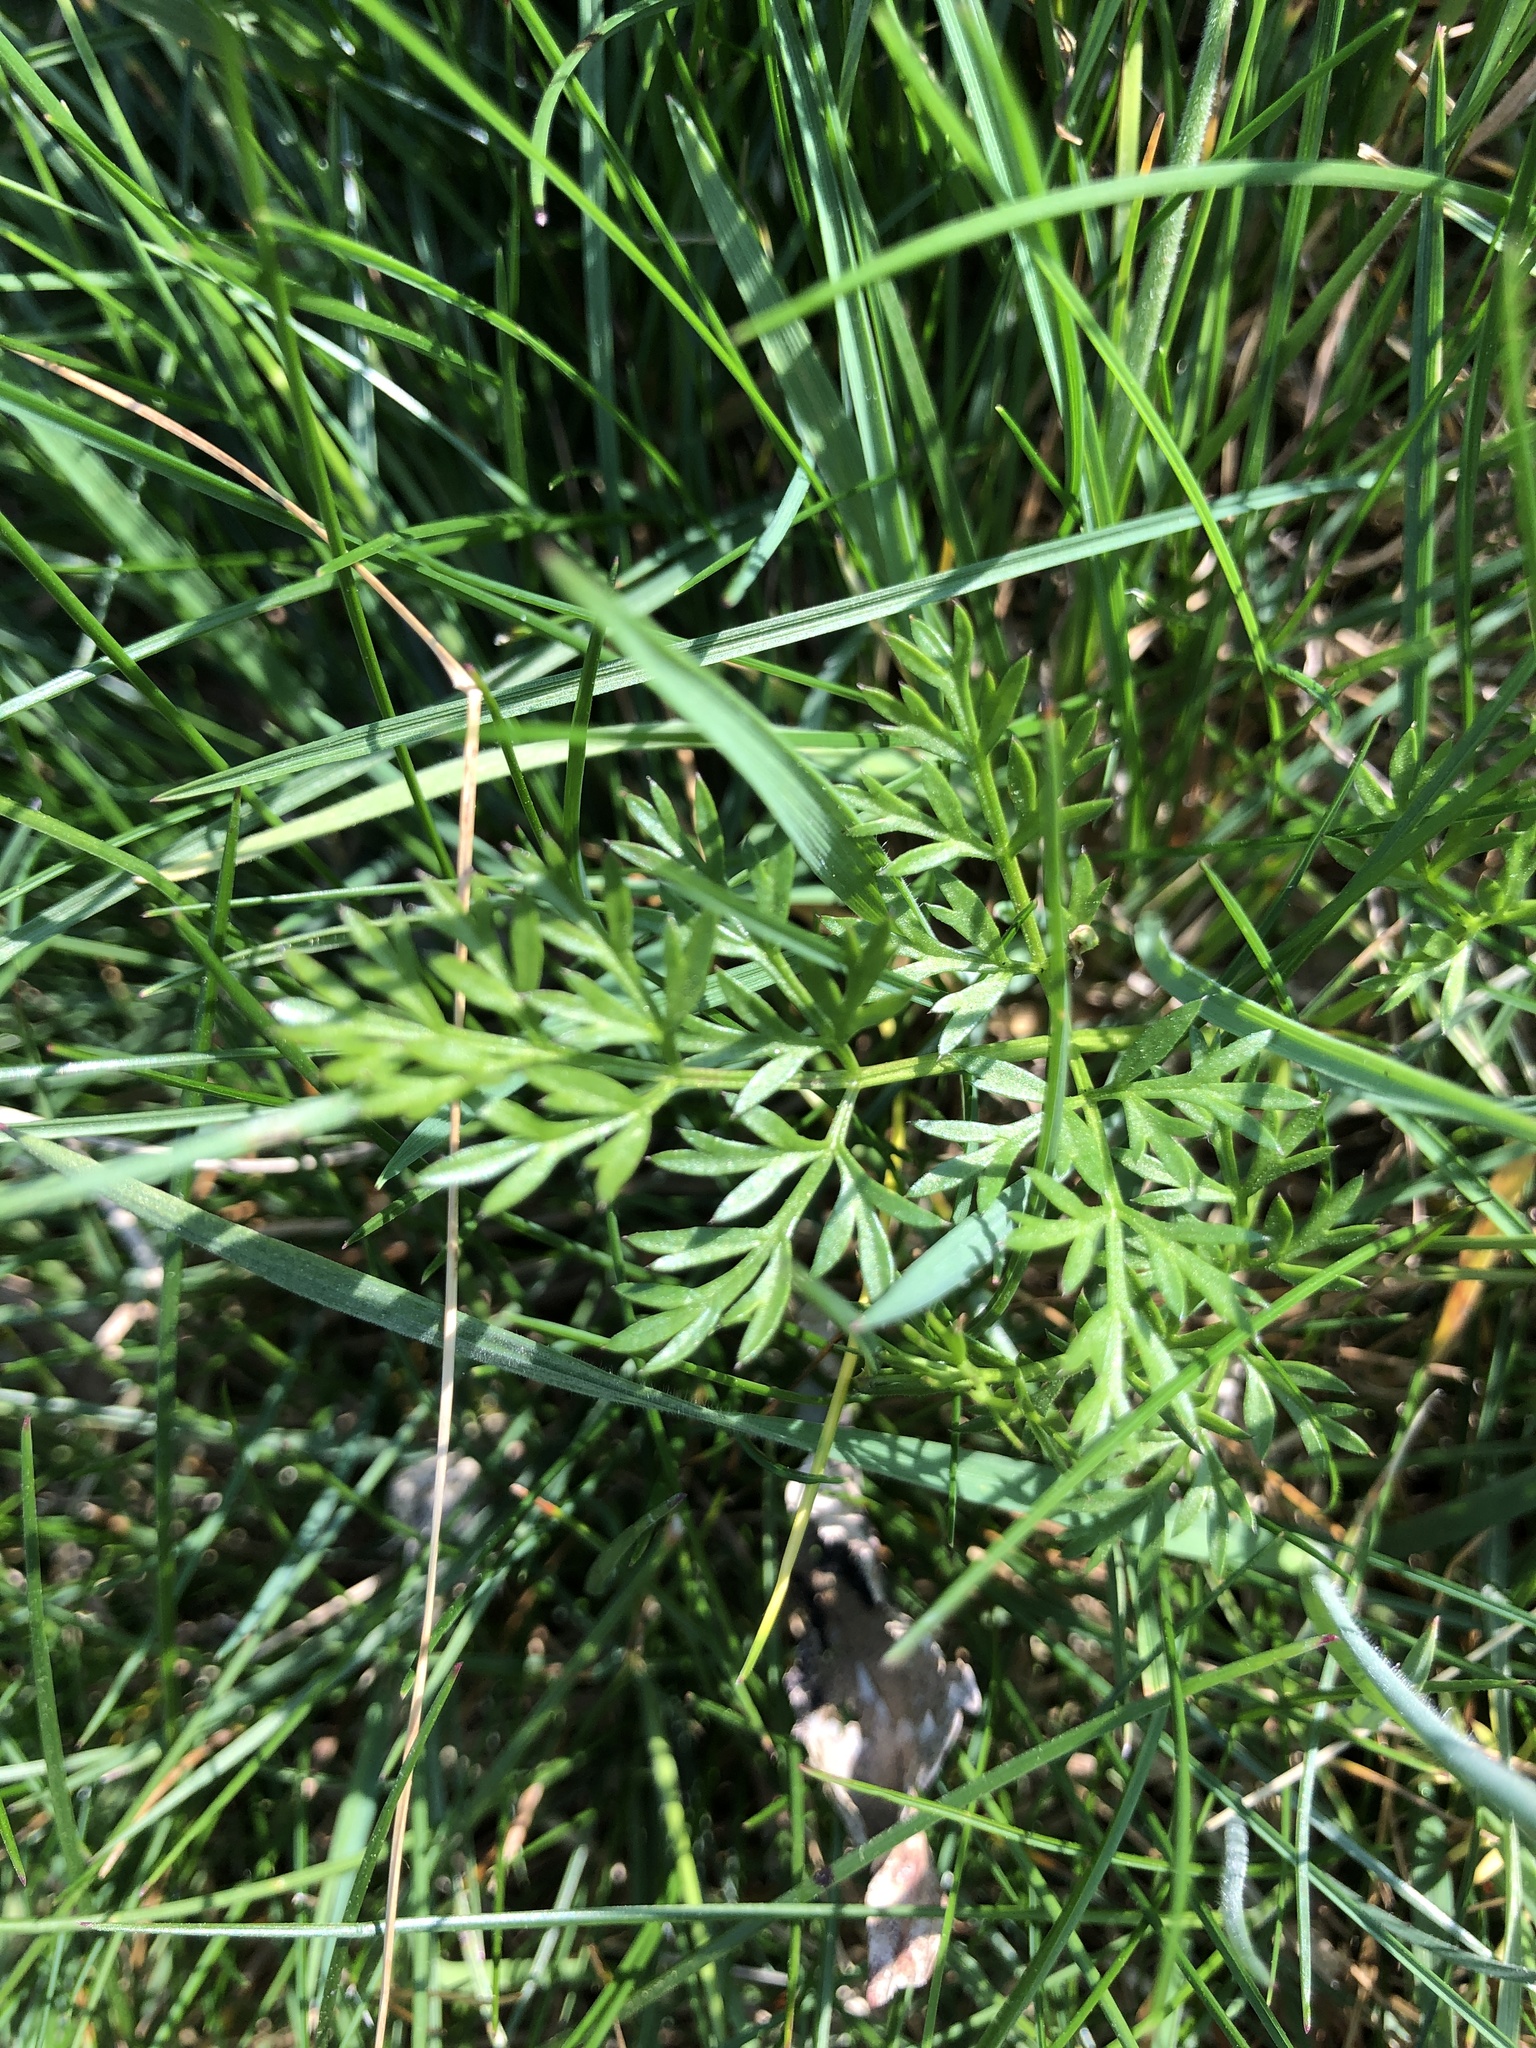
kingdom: Plantae
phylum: Tracheophyta
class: Magnoliopsida
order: Apiales
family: Apiaceae
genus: Conopodium
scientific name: Conopodium majus
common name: Pignut
